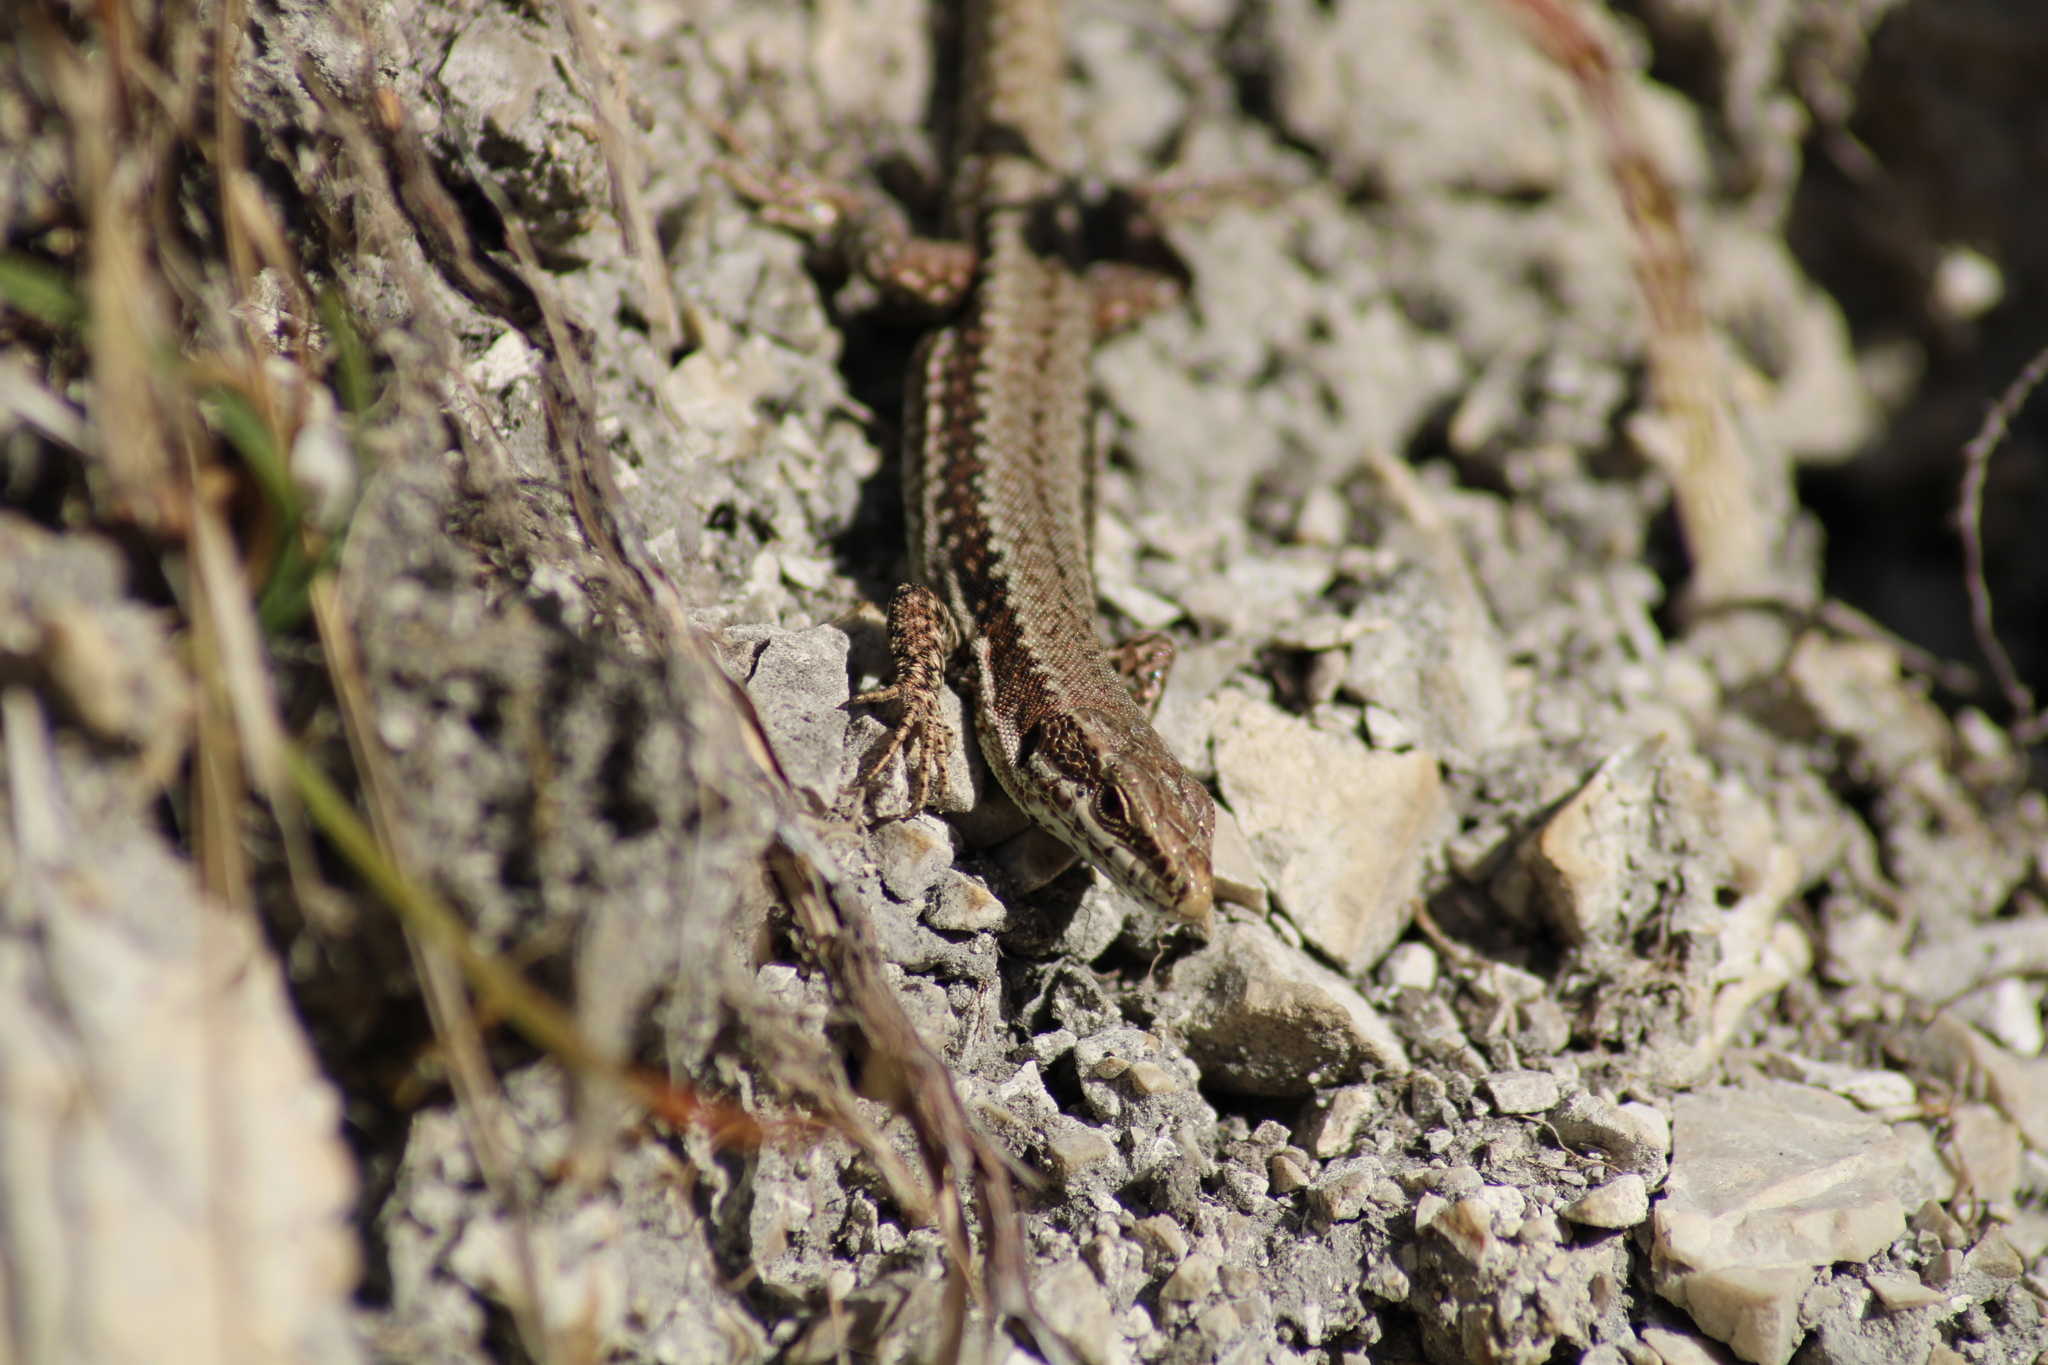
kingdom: Animalia
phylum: Chordata
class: Squamata
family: Lacertidae
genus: Podarcis
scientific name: Podarcis muralis
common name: Common wall lizard
